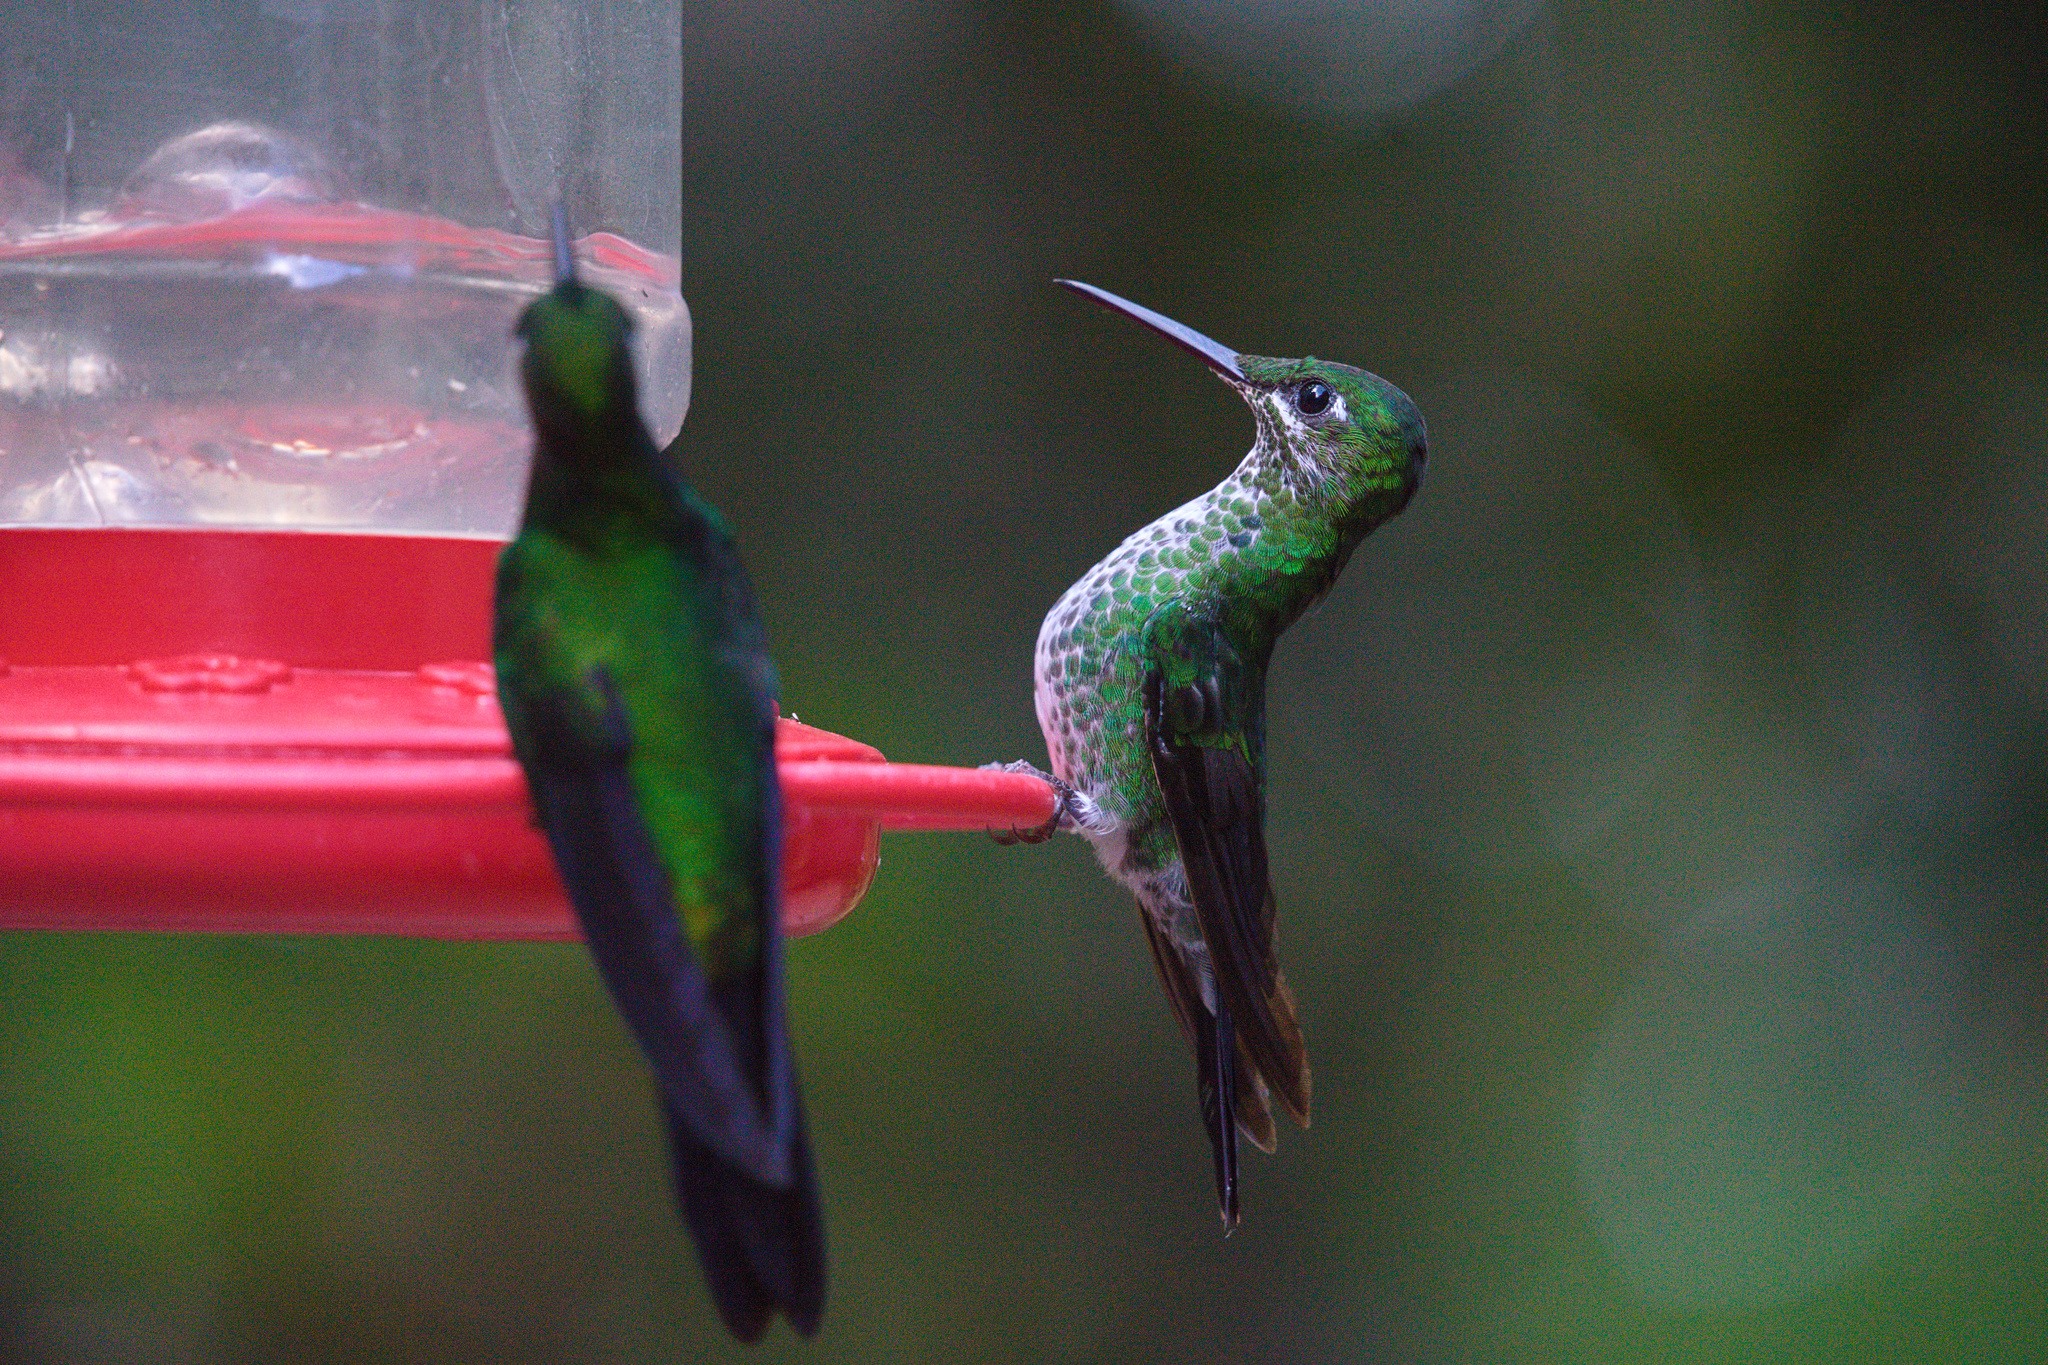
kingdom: Animalia
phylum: Chordata
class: Aves
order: Apodiformes
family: Trochilidae
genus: Heliodoxa
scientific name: Heliodoxa jacula
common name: Green-crowned brilliant
